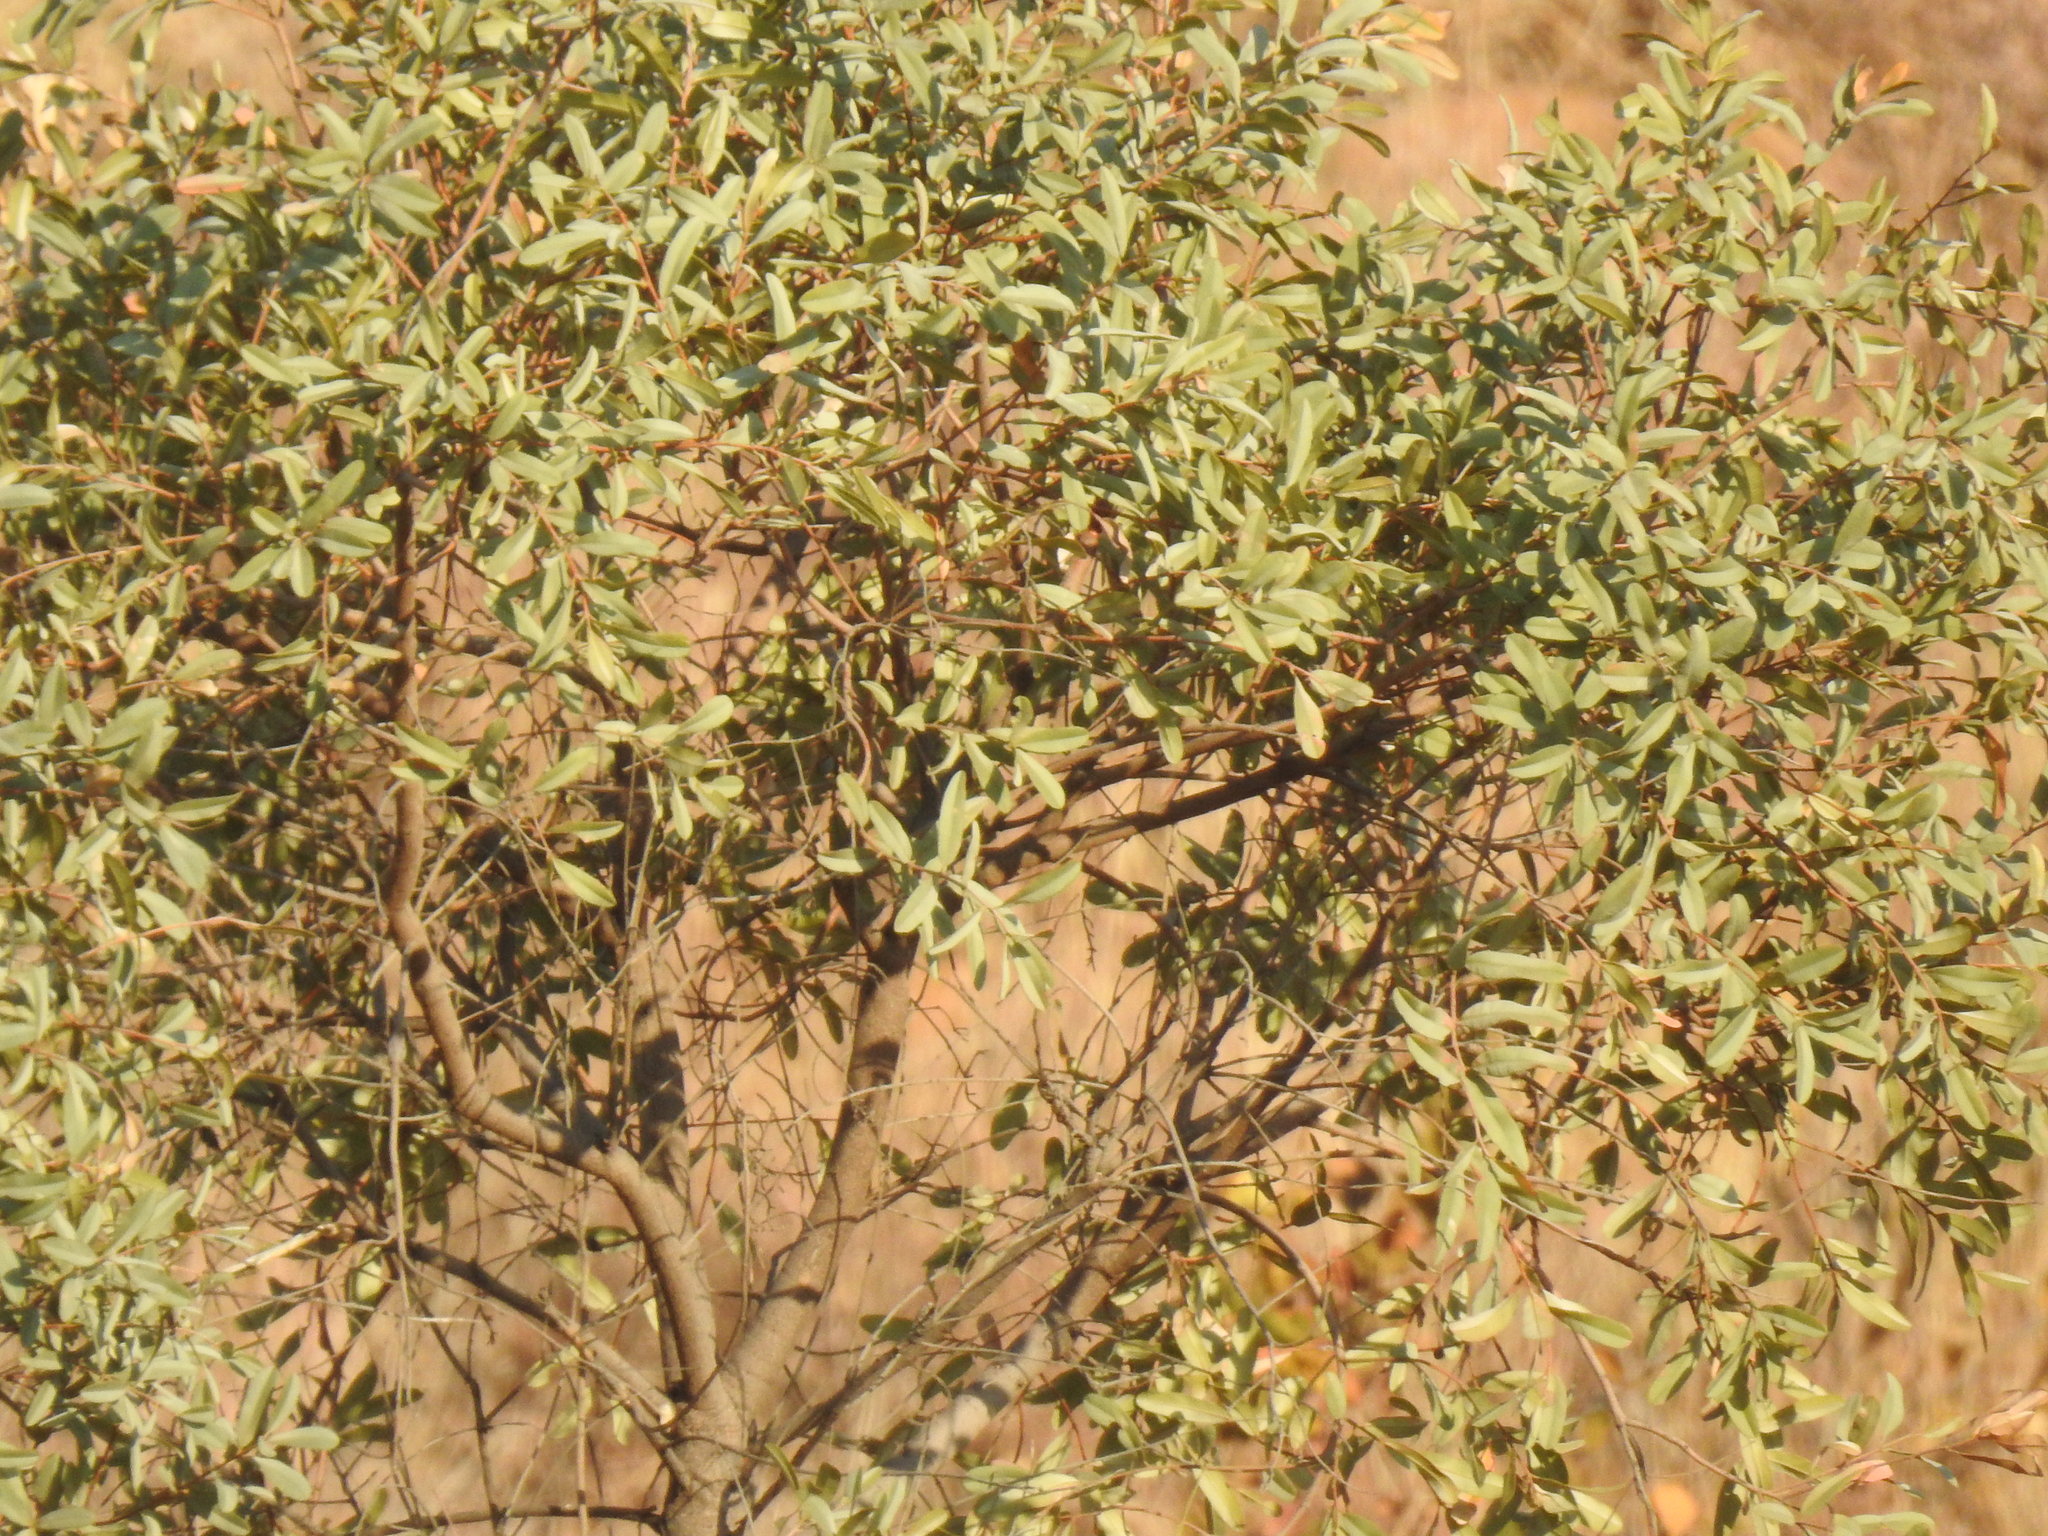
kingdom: Plantae
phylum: Tracheophyta
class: Magnoliopsida
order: Sapindales
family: Anacardiaceae
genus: Ozoroa
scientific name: Ozoroa paniculosa
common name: Bushveld ozoroa
